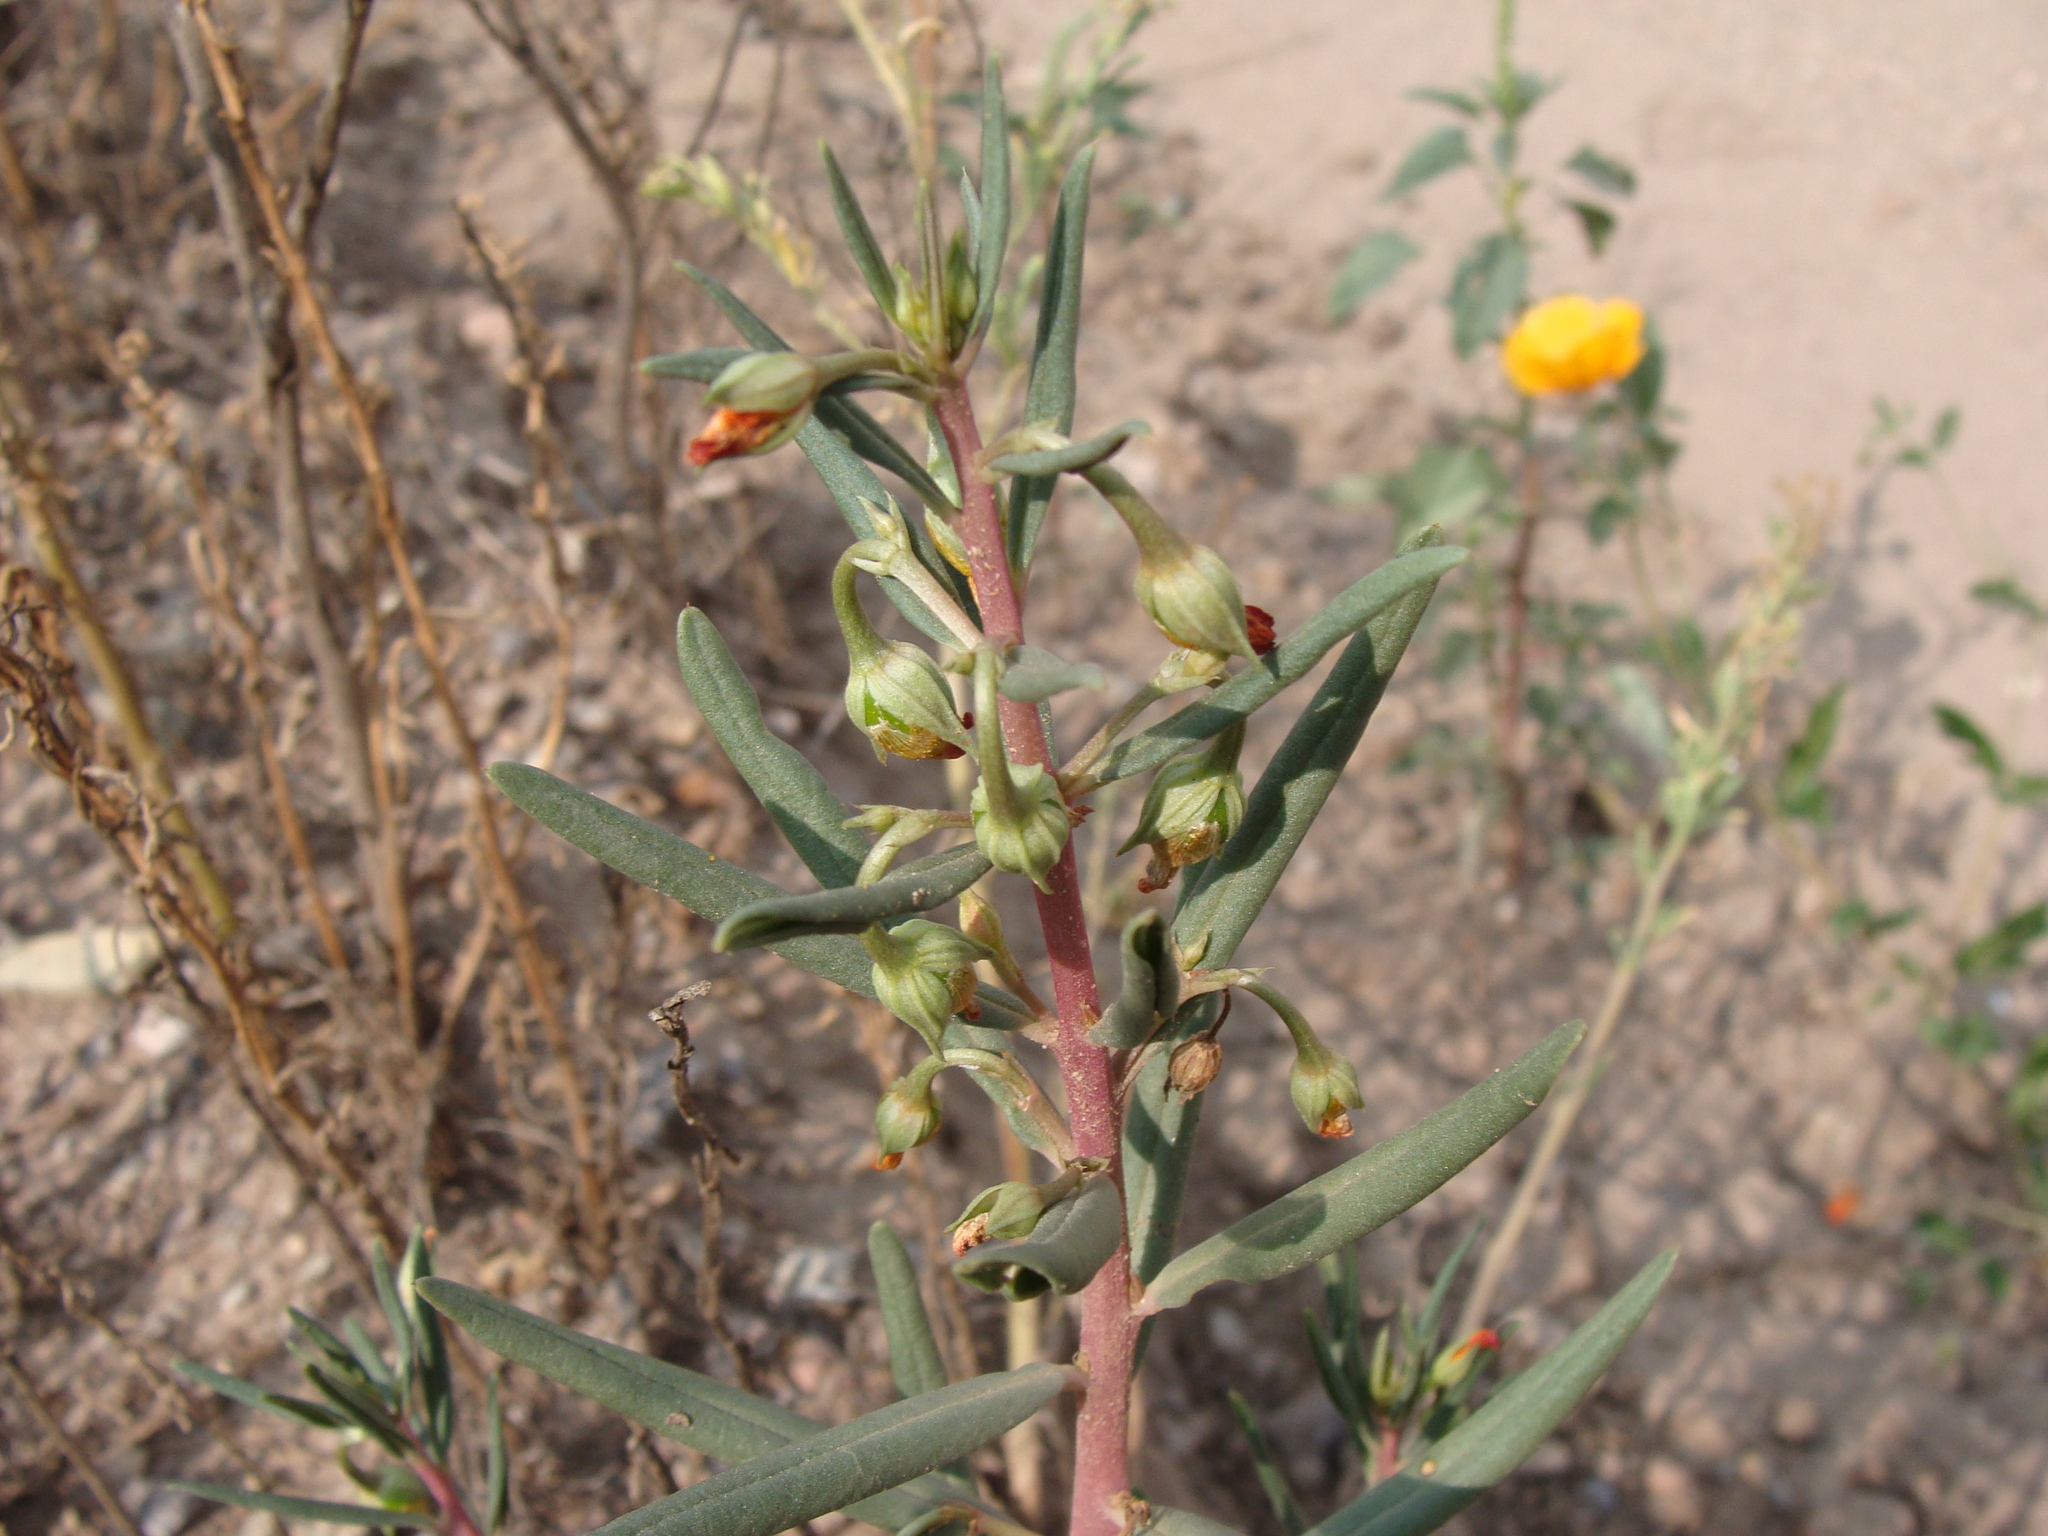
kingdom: Plantae
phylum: Tracheophyta
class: Magnoliopsida
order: Caryophyllales
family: Montiaceae
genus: Phemeranthus
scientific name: Phemeranthus aurantiacus
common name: Orange fameflower
